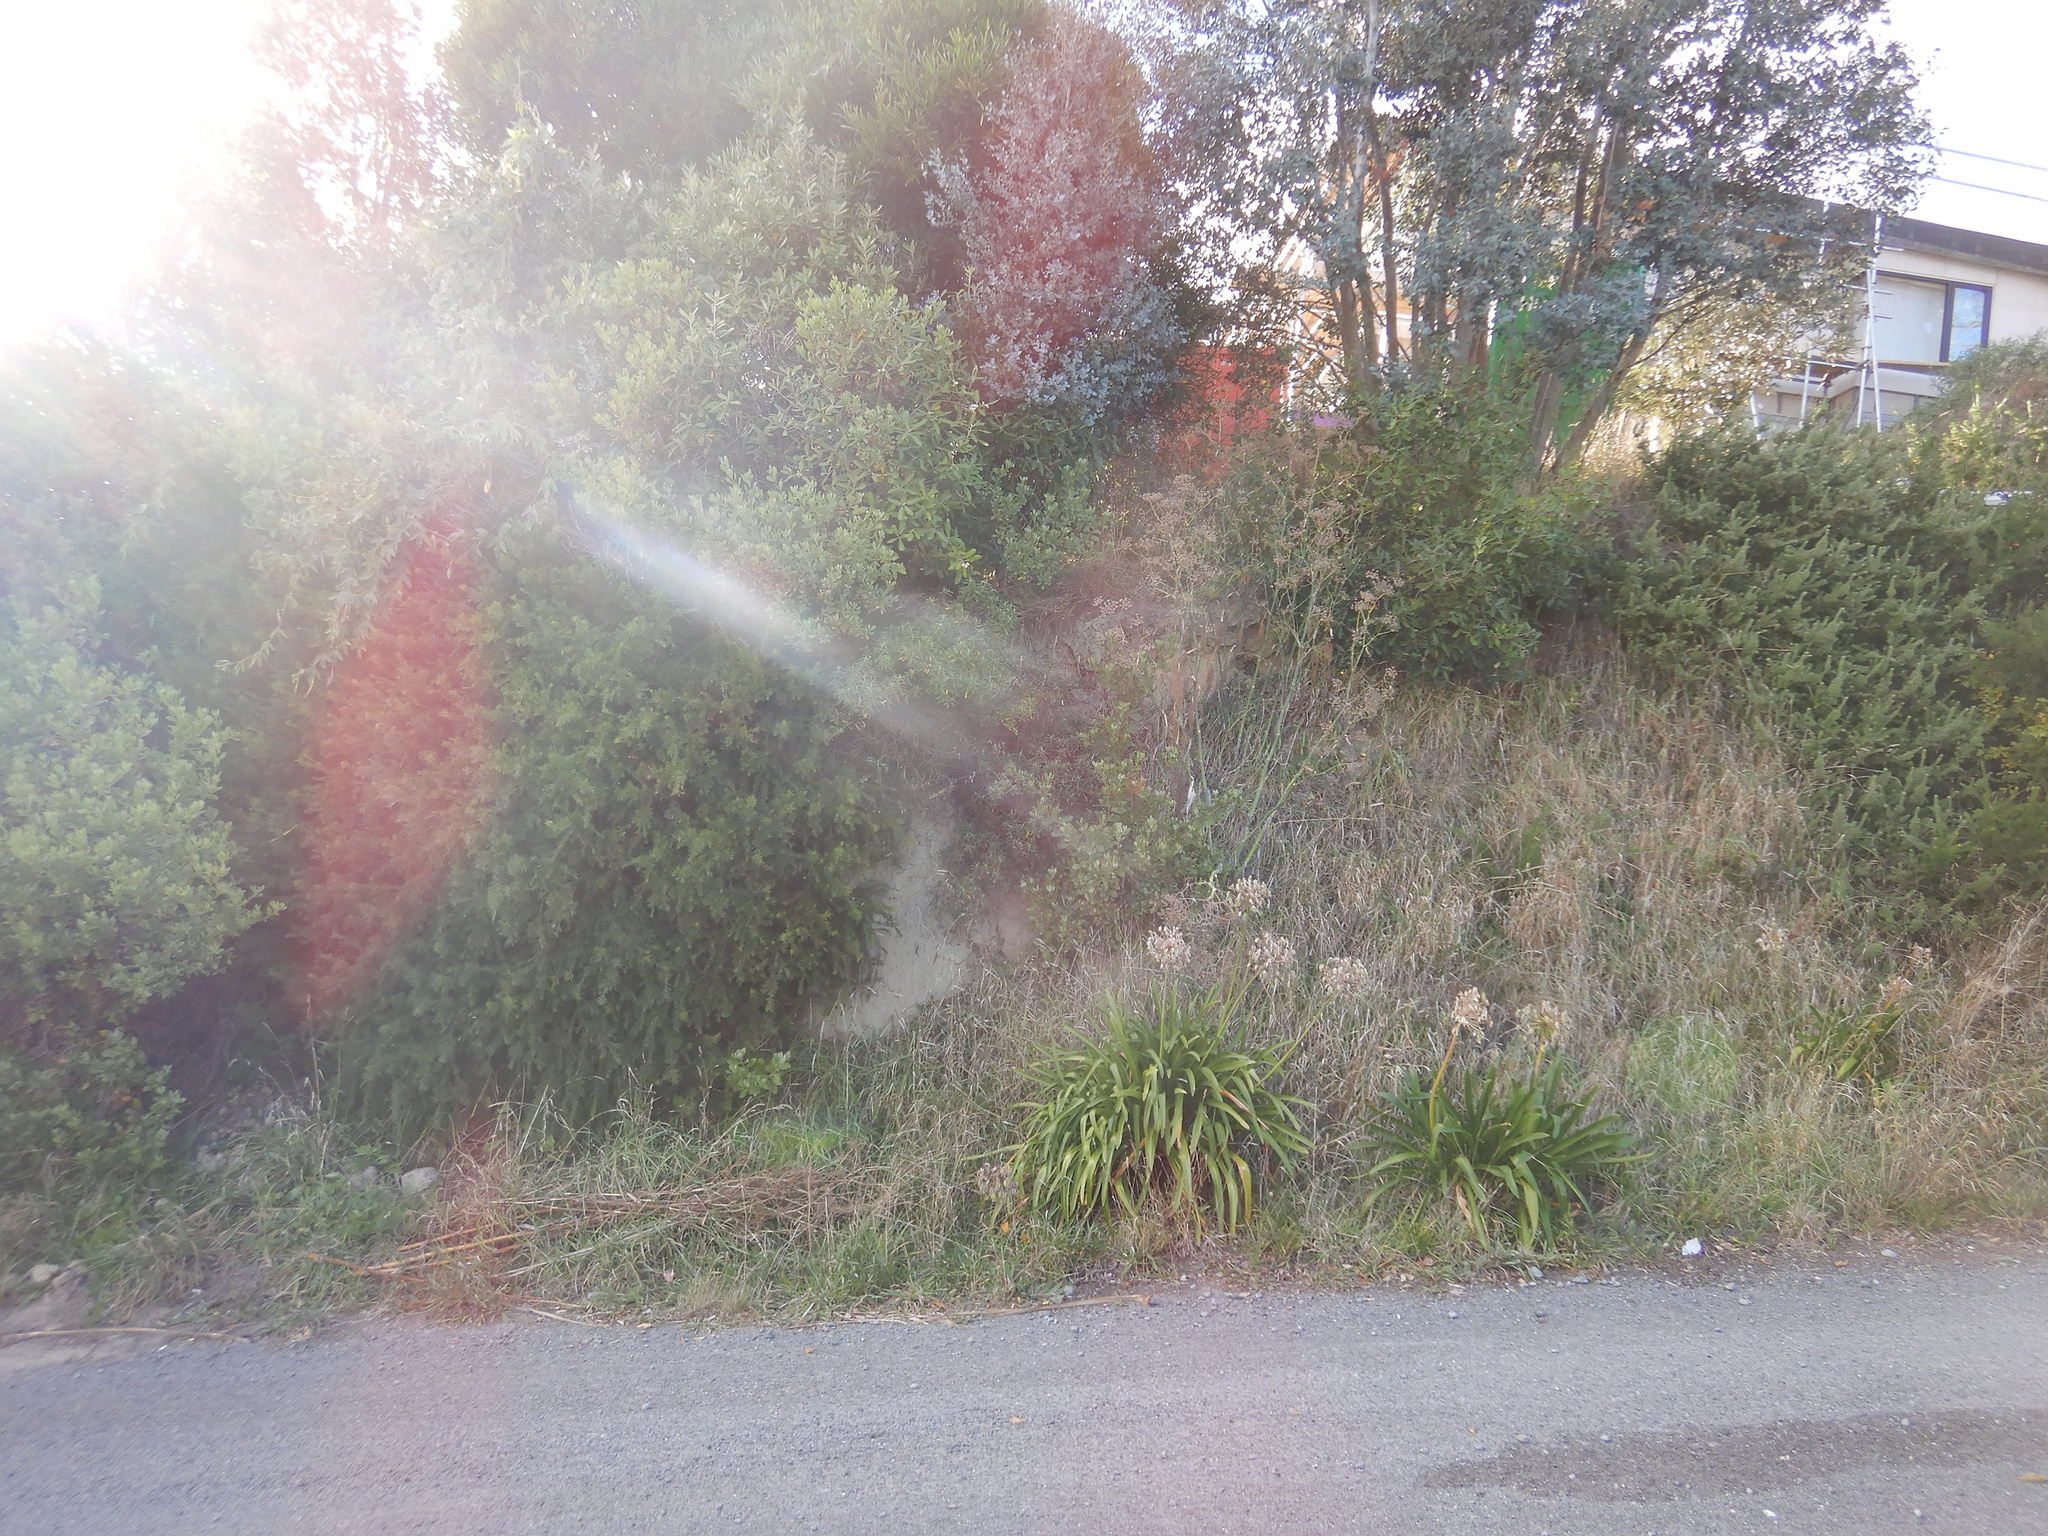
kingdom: Plantae
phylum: Tracheophyta
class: Magnoliopsida
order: Apiales
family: Apiaceae
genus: Foeniculum
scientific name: Foeniculum vulgare
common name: Fennel
